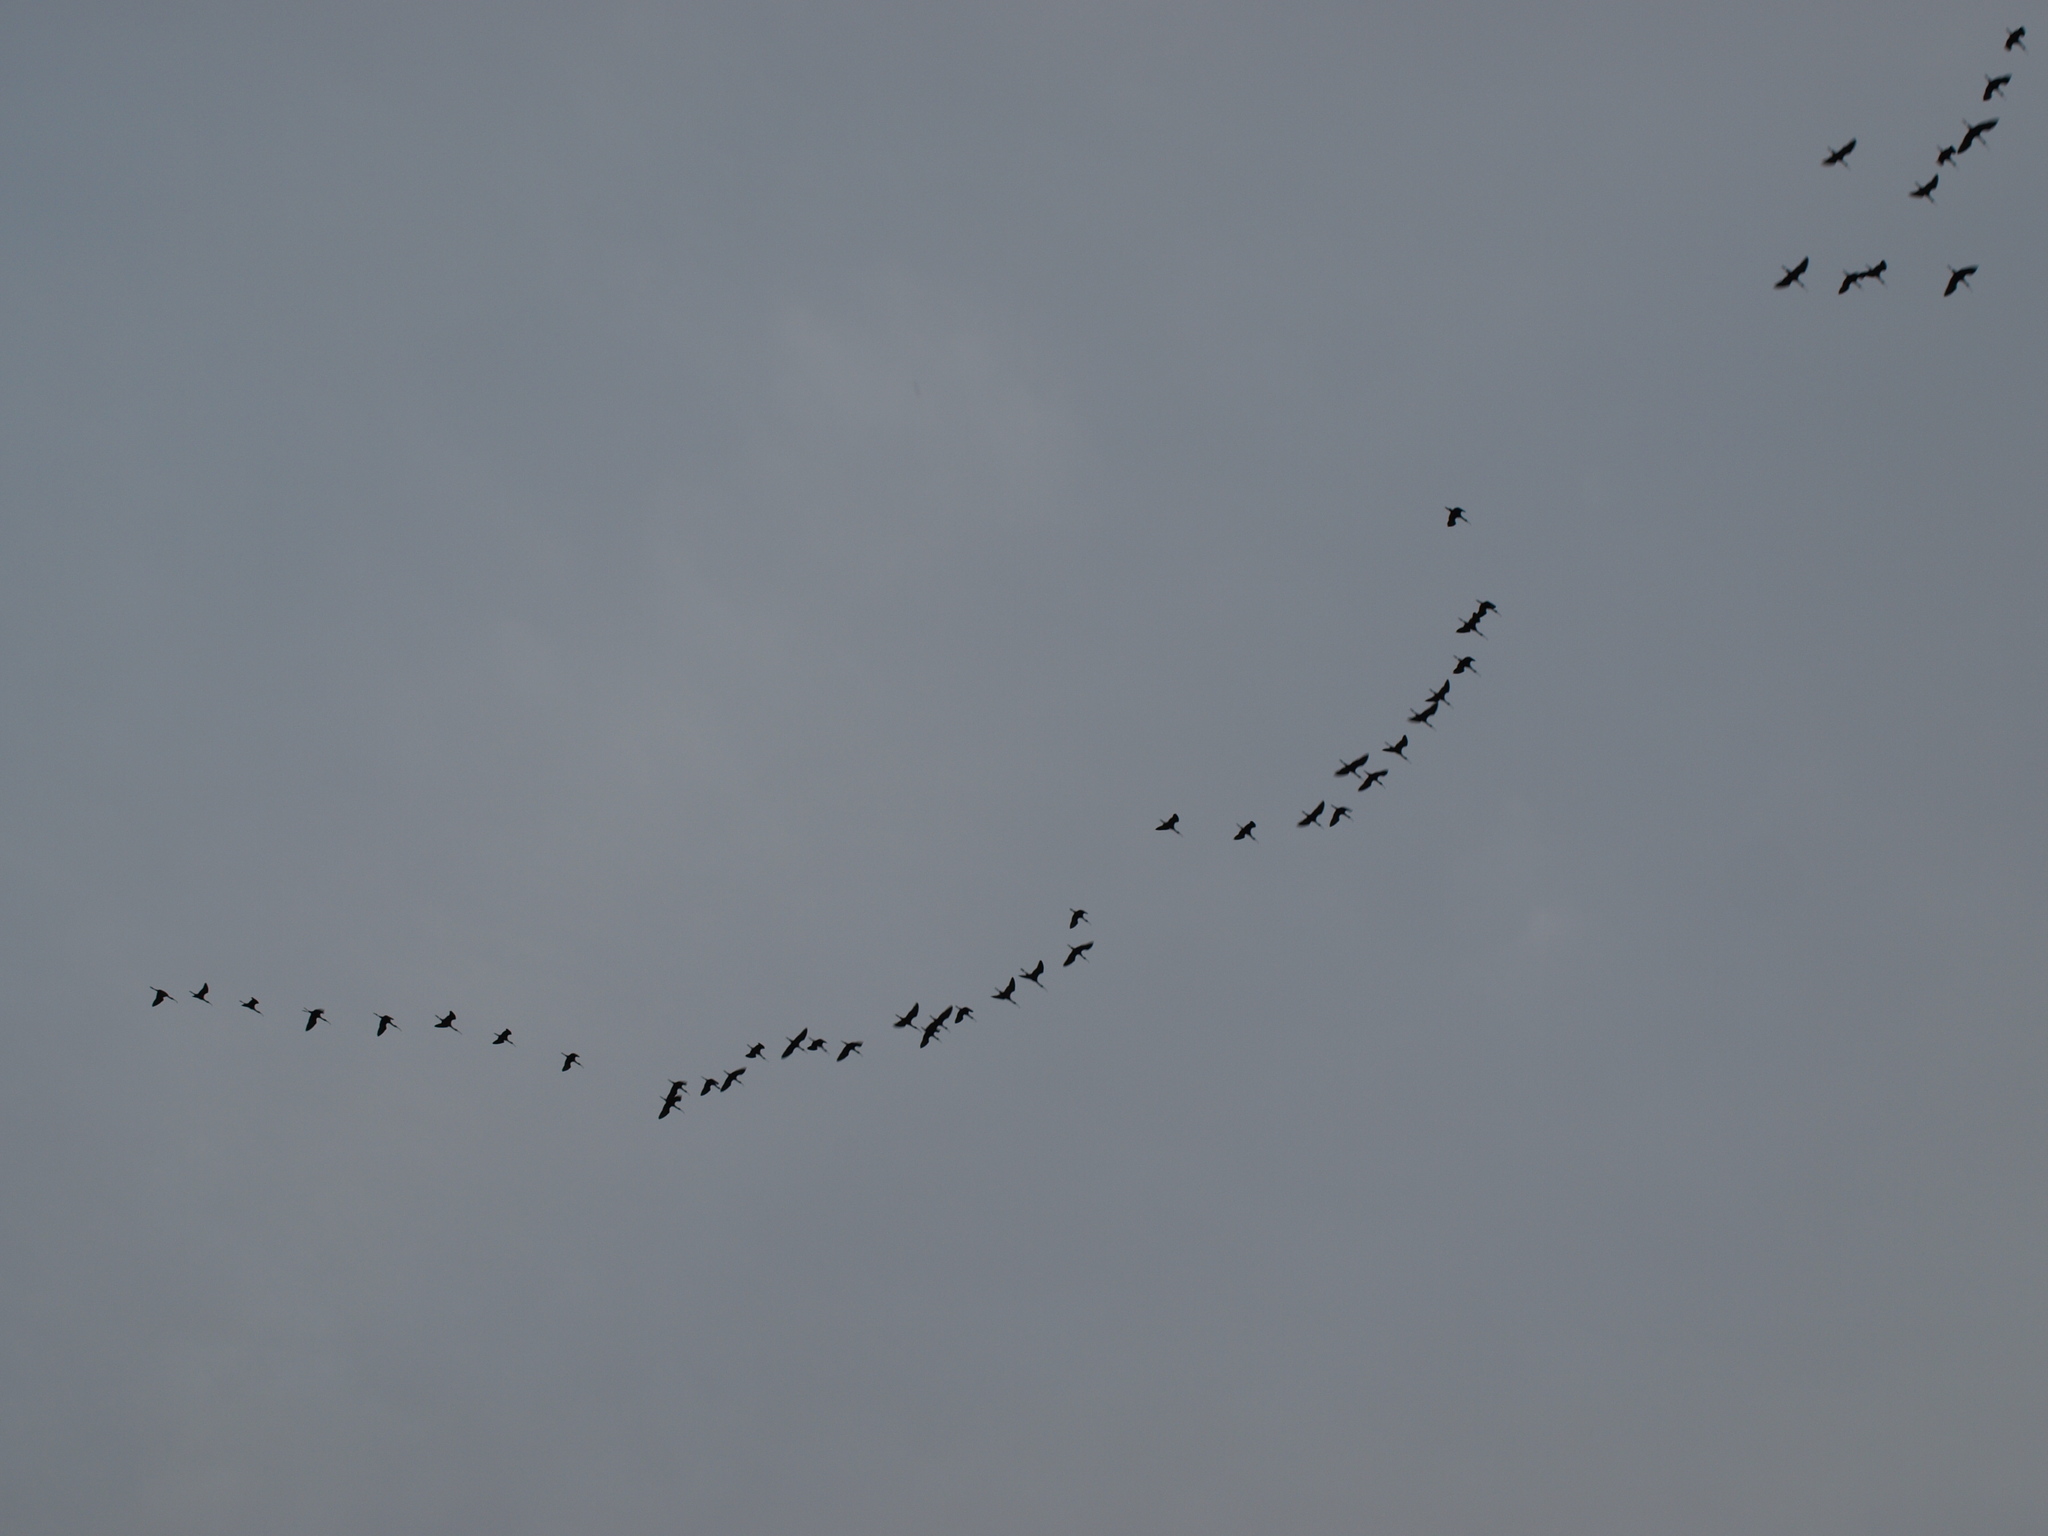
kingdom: Animalia
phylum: Chordata
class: Aves
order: Pelecaniformes
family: Threskiornithidae
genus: Plegadis
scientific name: Plegadis chihi
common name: White-faced ibis
